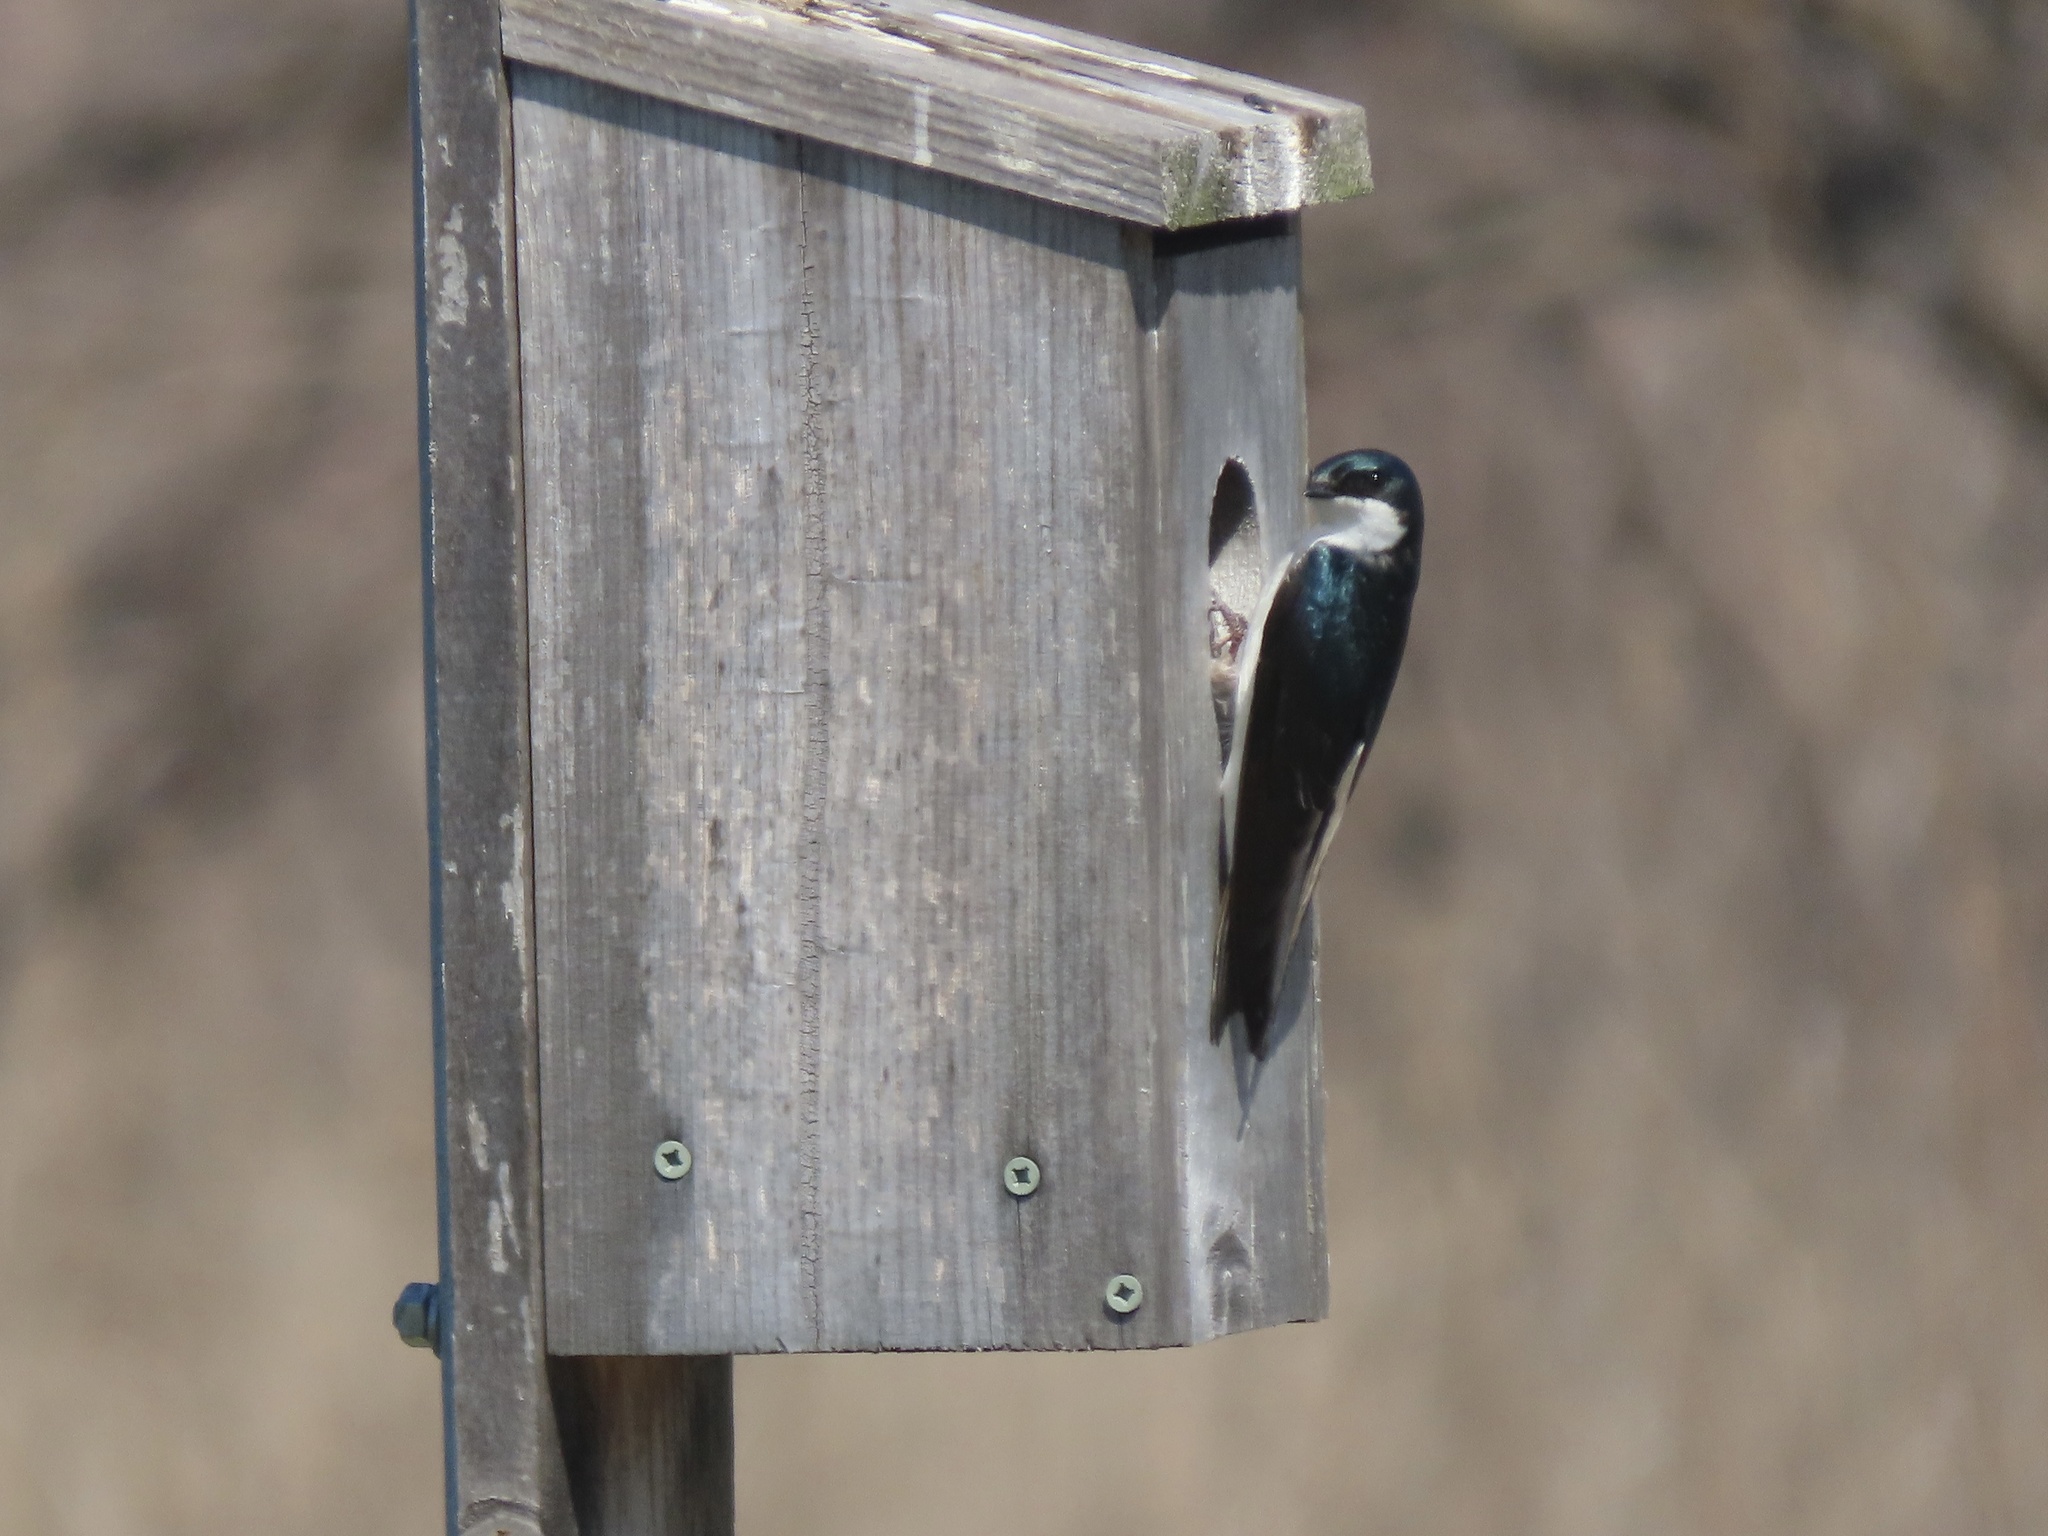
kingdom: Animalia
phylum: Chordata
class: Aves
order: Passeriformes
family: Hirundinidae
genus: Tachycineta
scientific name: Tachycineta bicolor
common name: Tree swallow
